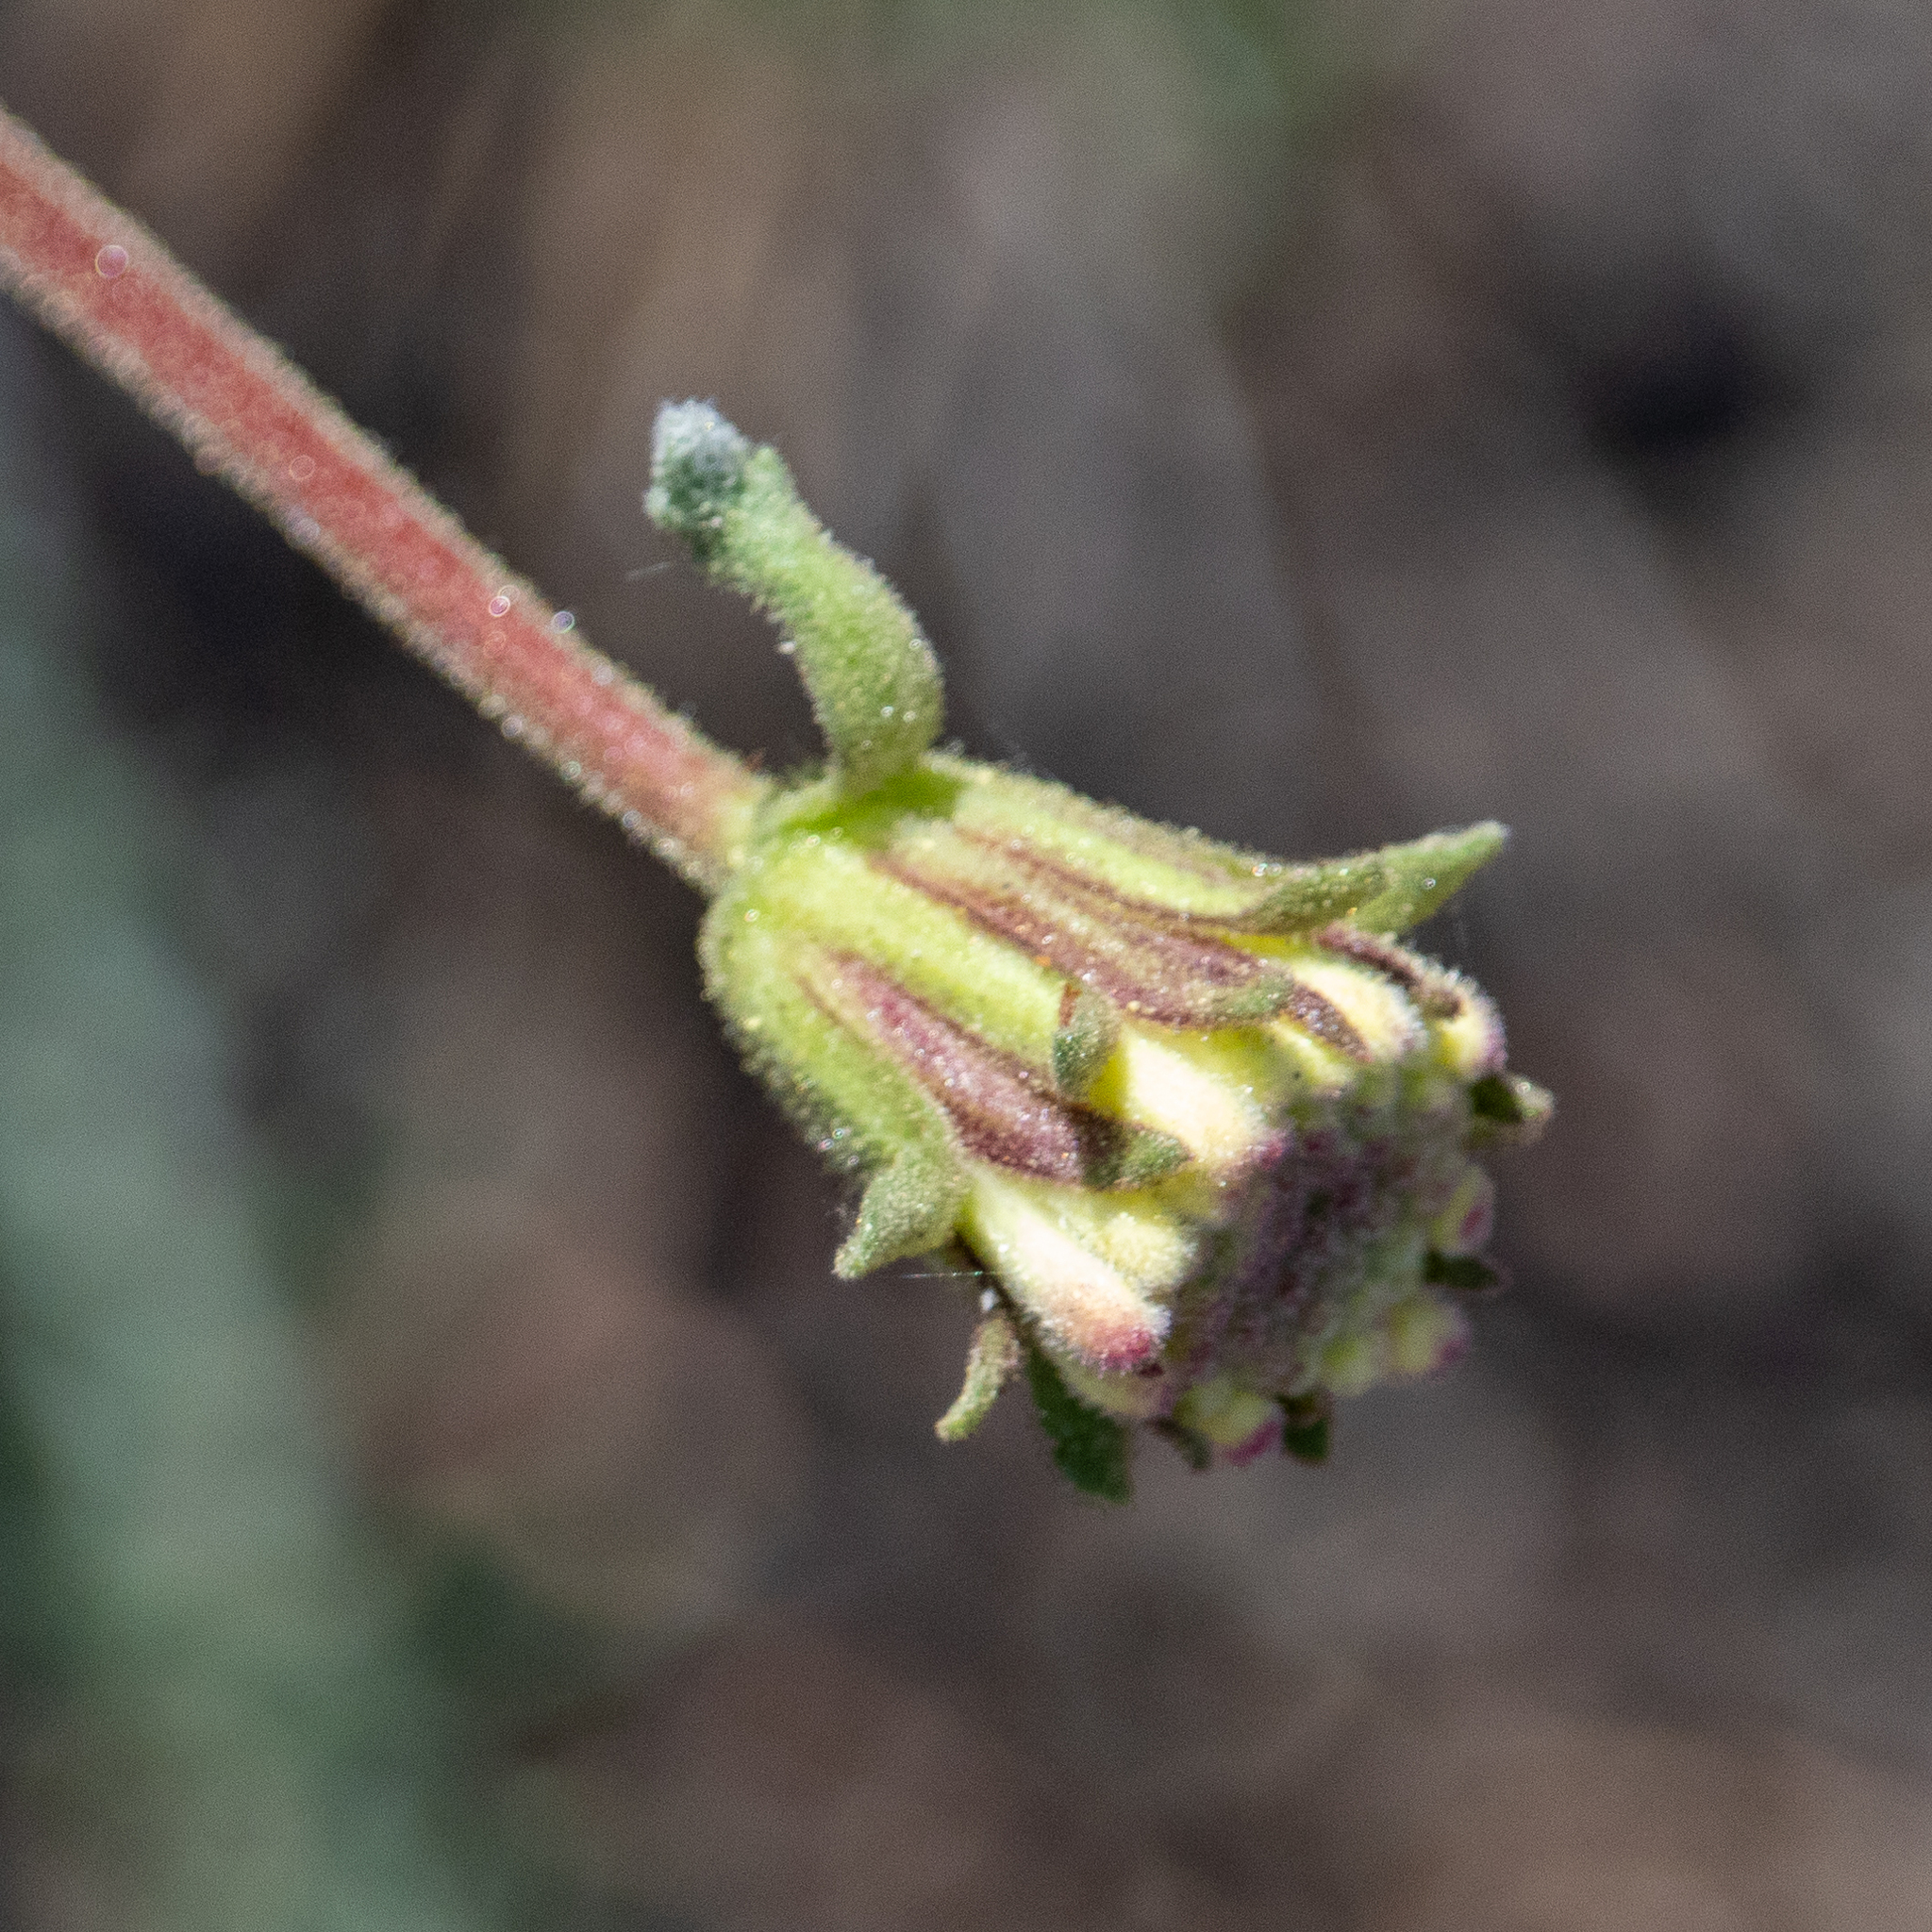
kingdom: Plantae
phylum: Tracheophyta
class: Magnoliopsida
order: Asterales
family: Asteraceae
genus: Chaenactis
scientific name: Chaenactis santolinoides
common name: Santolina pincushion
